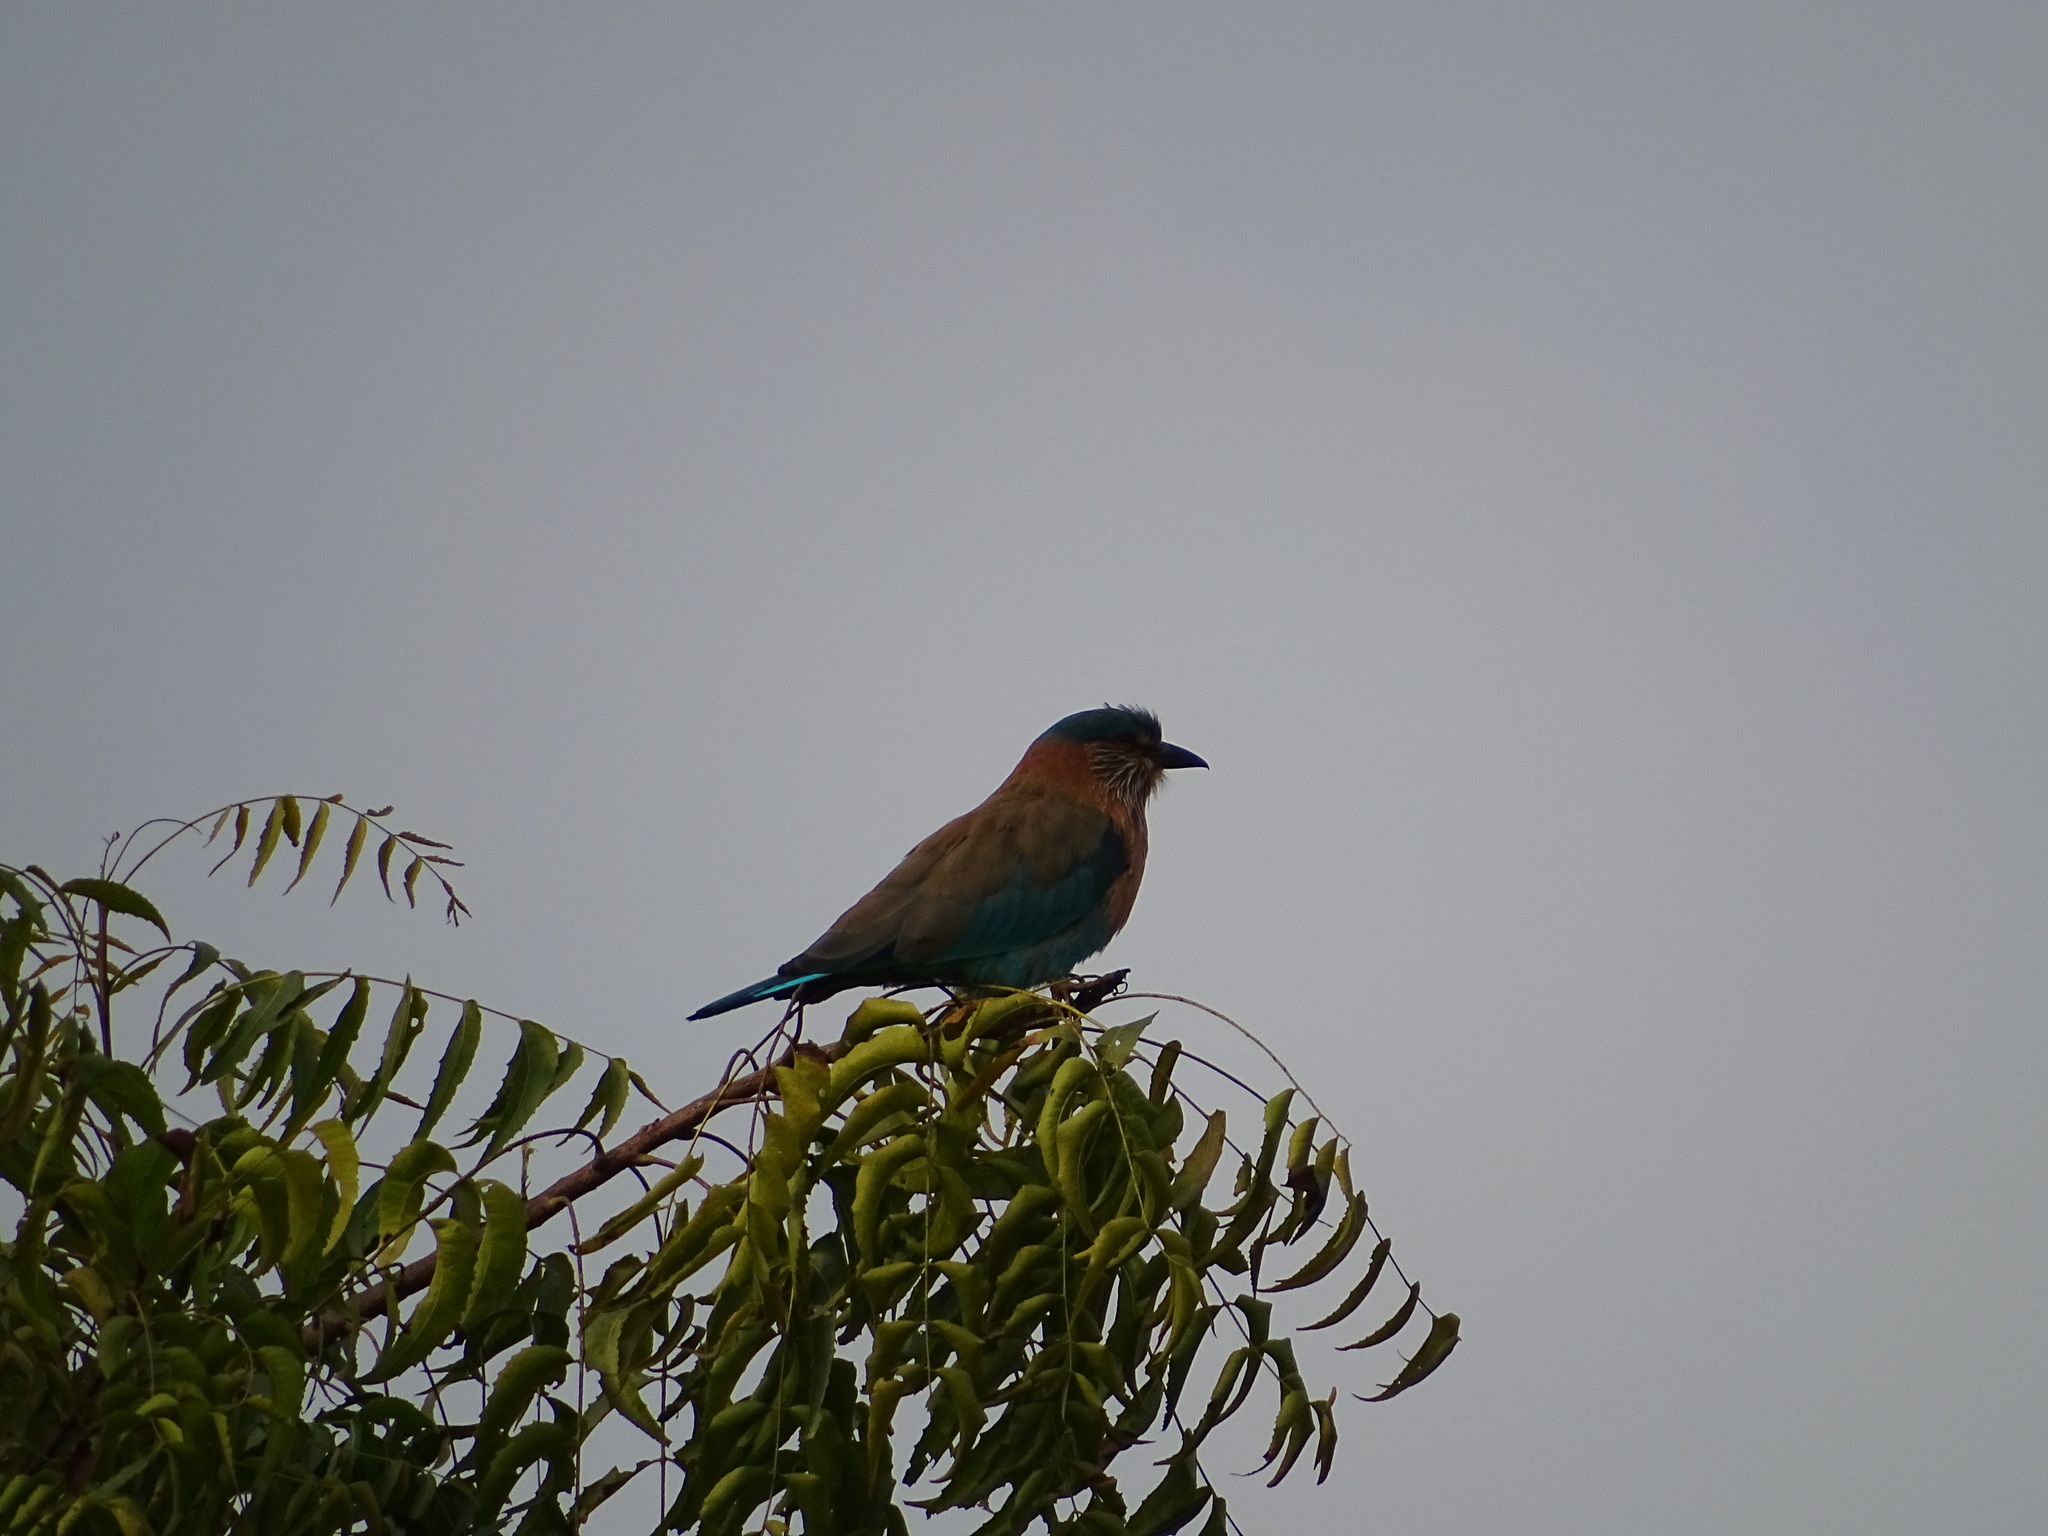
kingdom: Animalia
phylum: Chordata
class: Aves
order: Coraciiformes
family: Coraciidae
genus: Coracias
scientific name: Coracias benghalensis
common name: Indian roller
